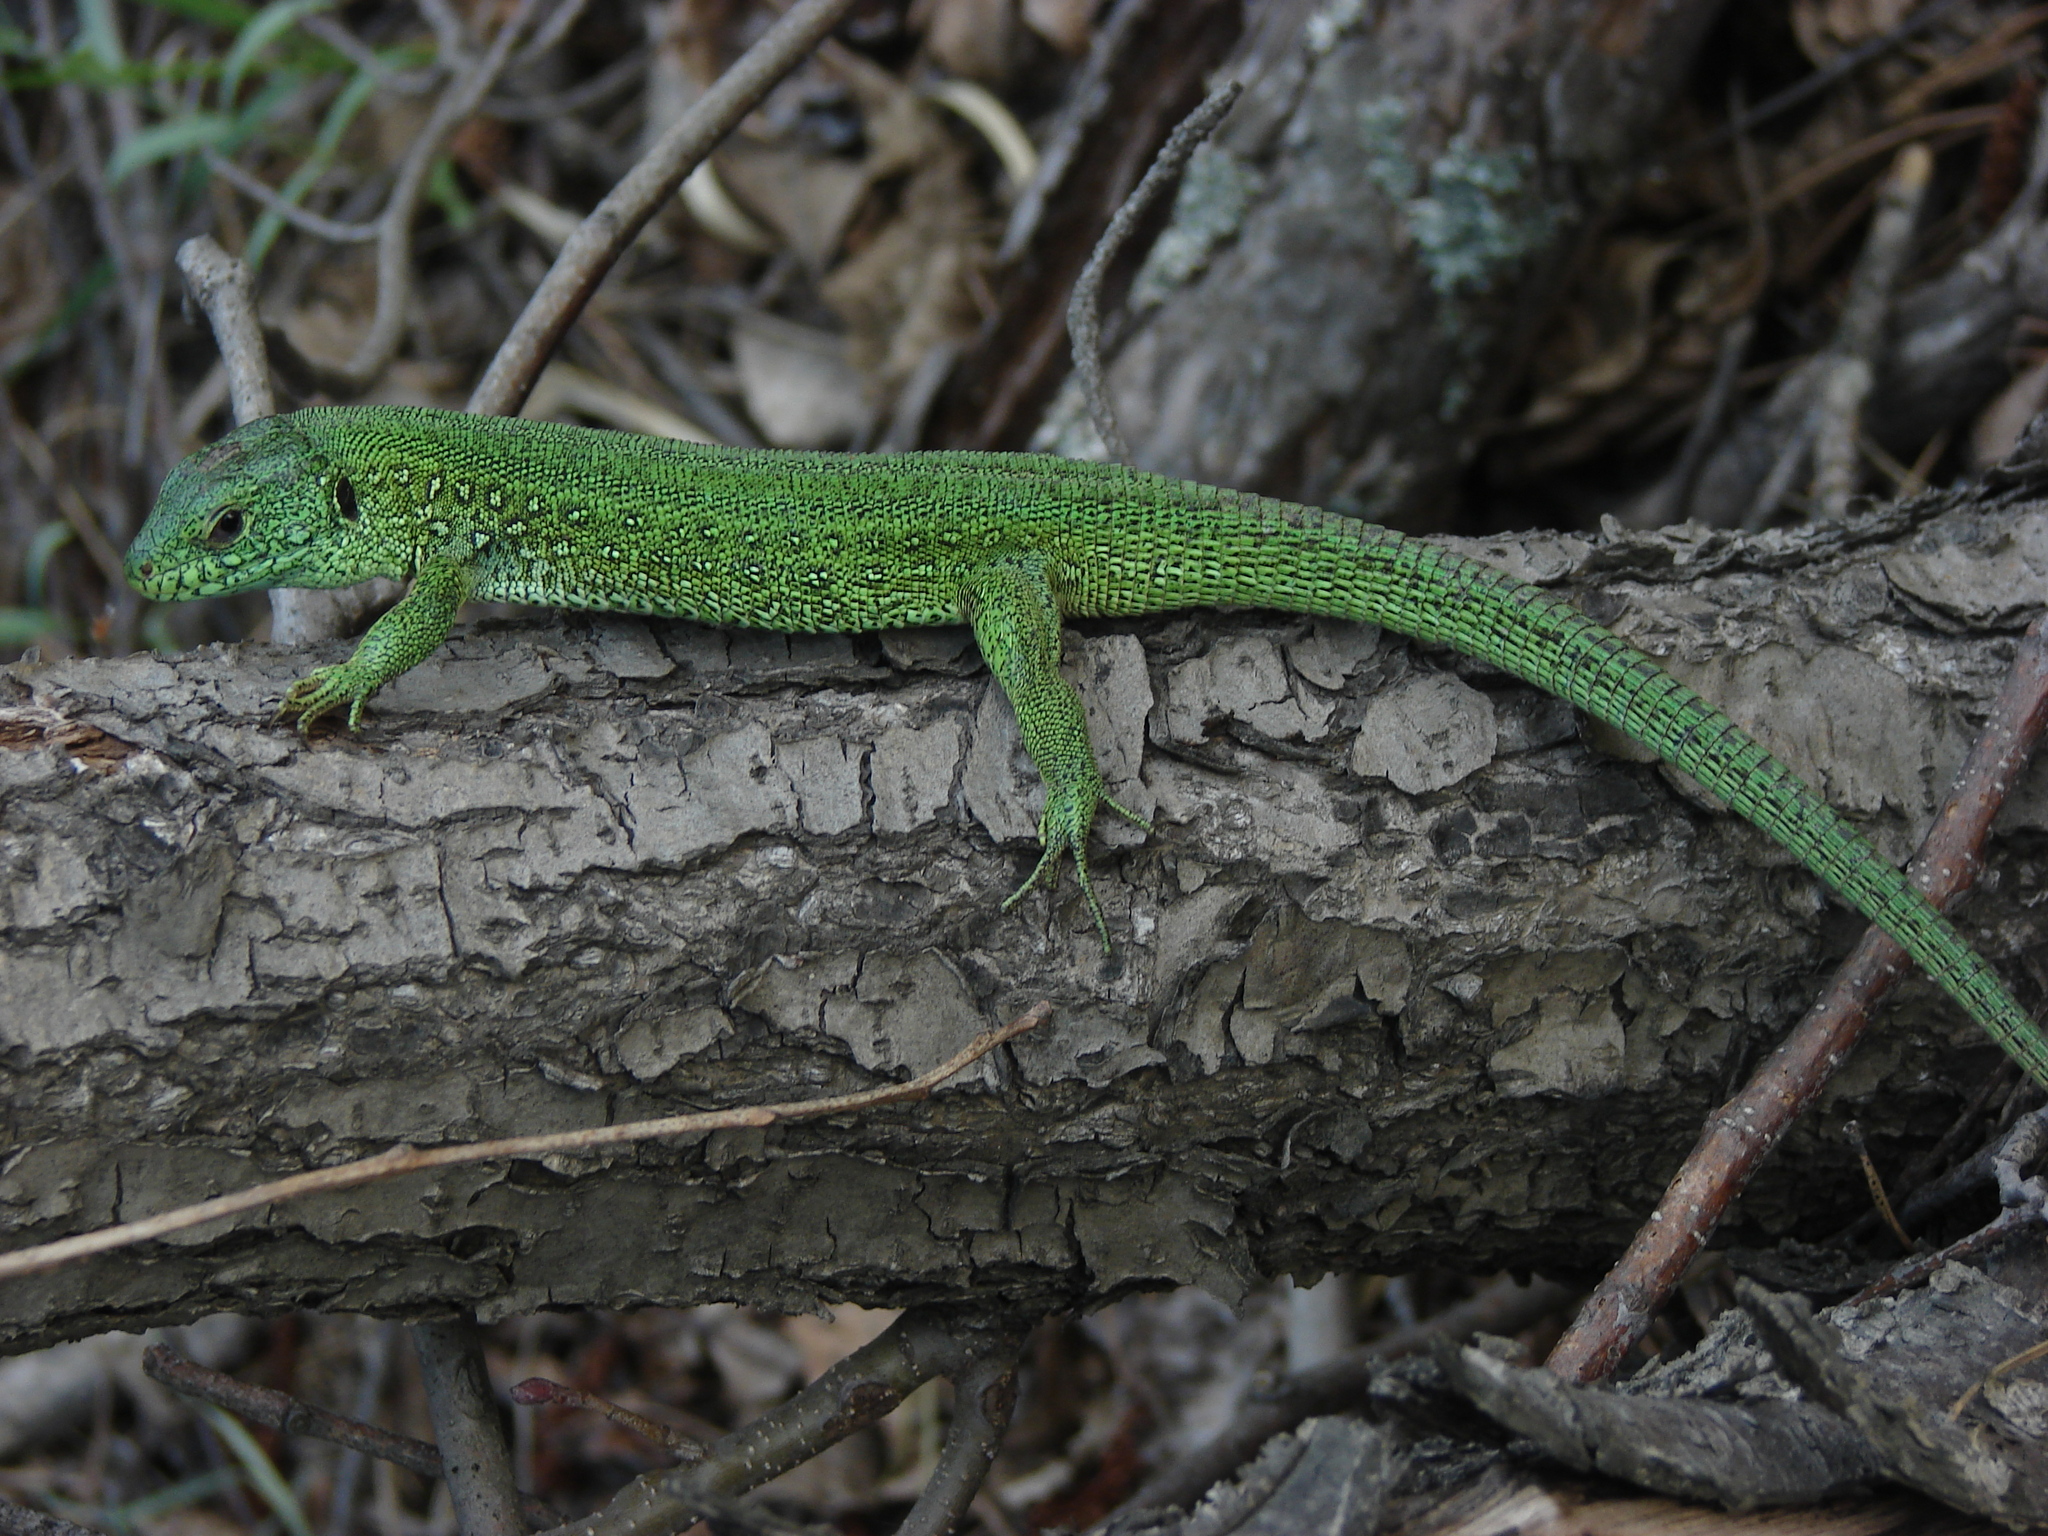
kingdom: Animalia
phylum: Chordata
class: Squamata
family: Lacertidae
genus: Lacerta
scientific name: Lacerta agilis
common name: Sand lizard
